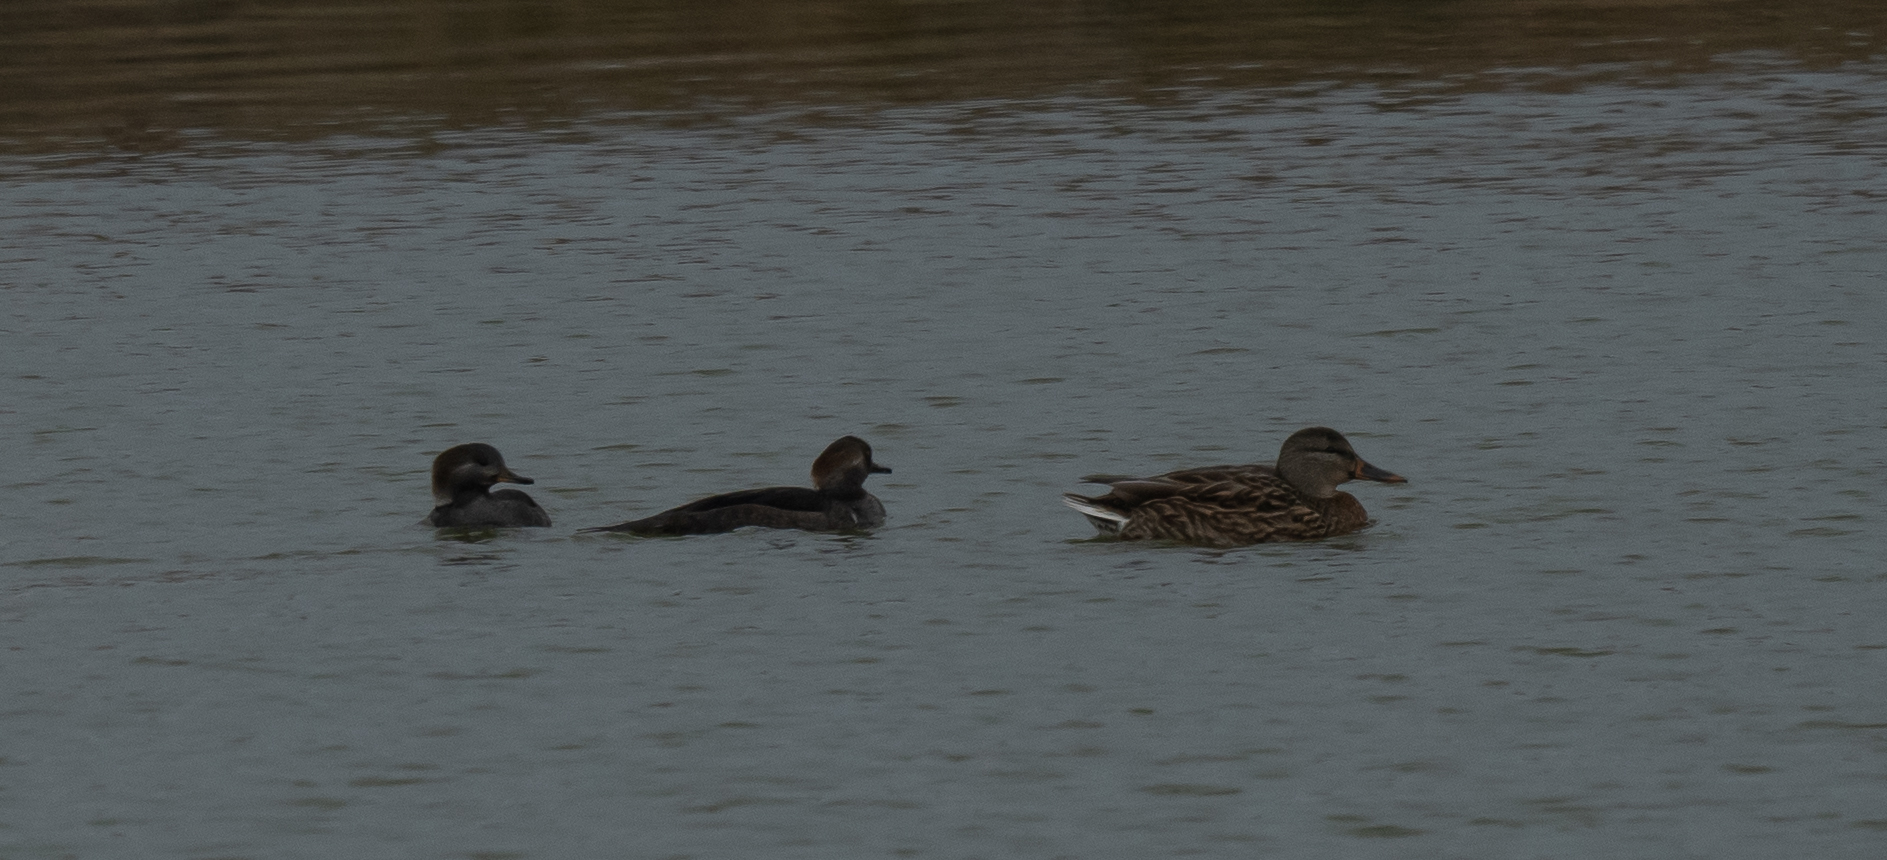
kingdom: Animalia
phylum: Chordata
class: Aves
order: Anseriformes
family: Anatidae
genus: Lophodytes
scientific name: Lophodytes cucullatus
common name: Hooded merganser
